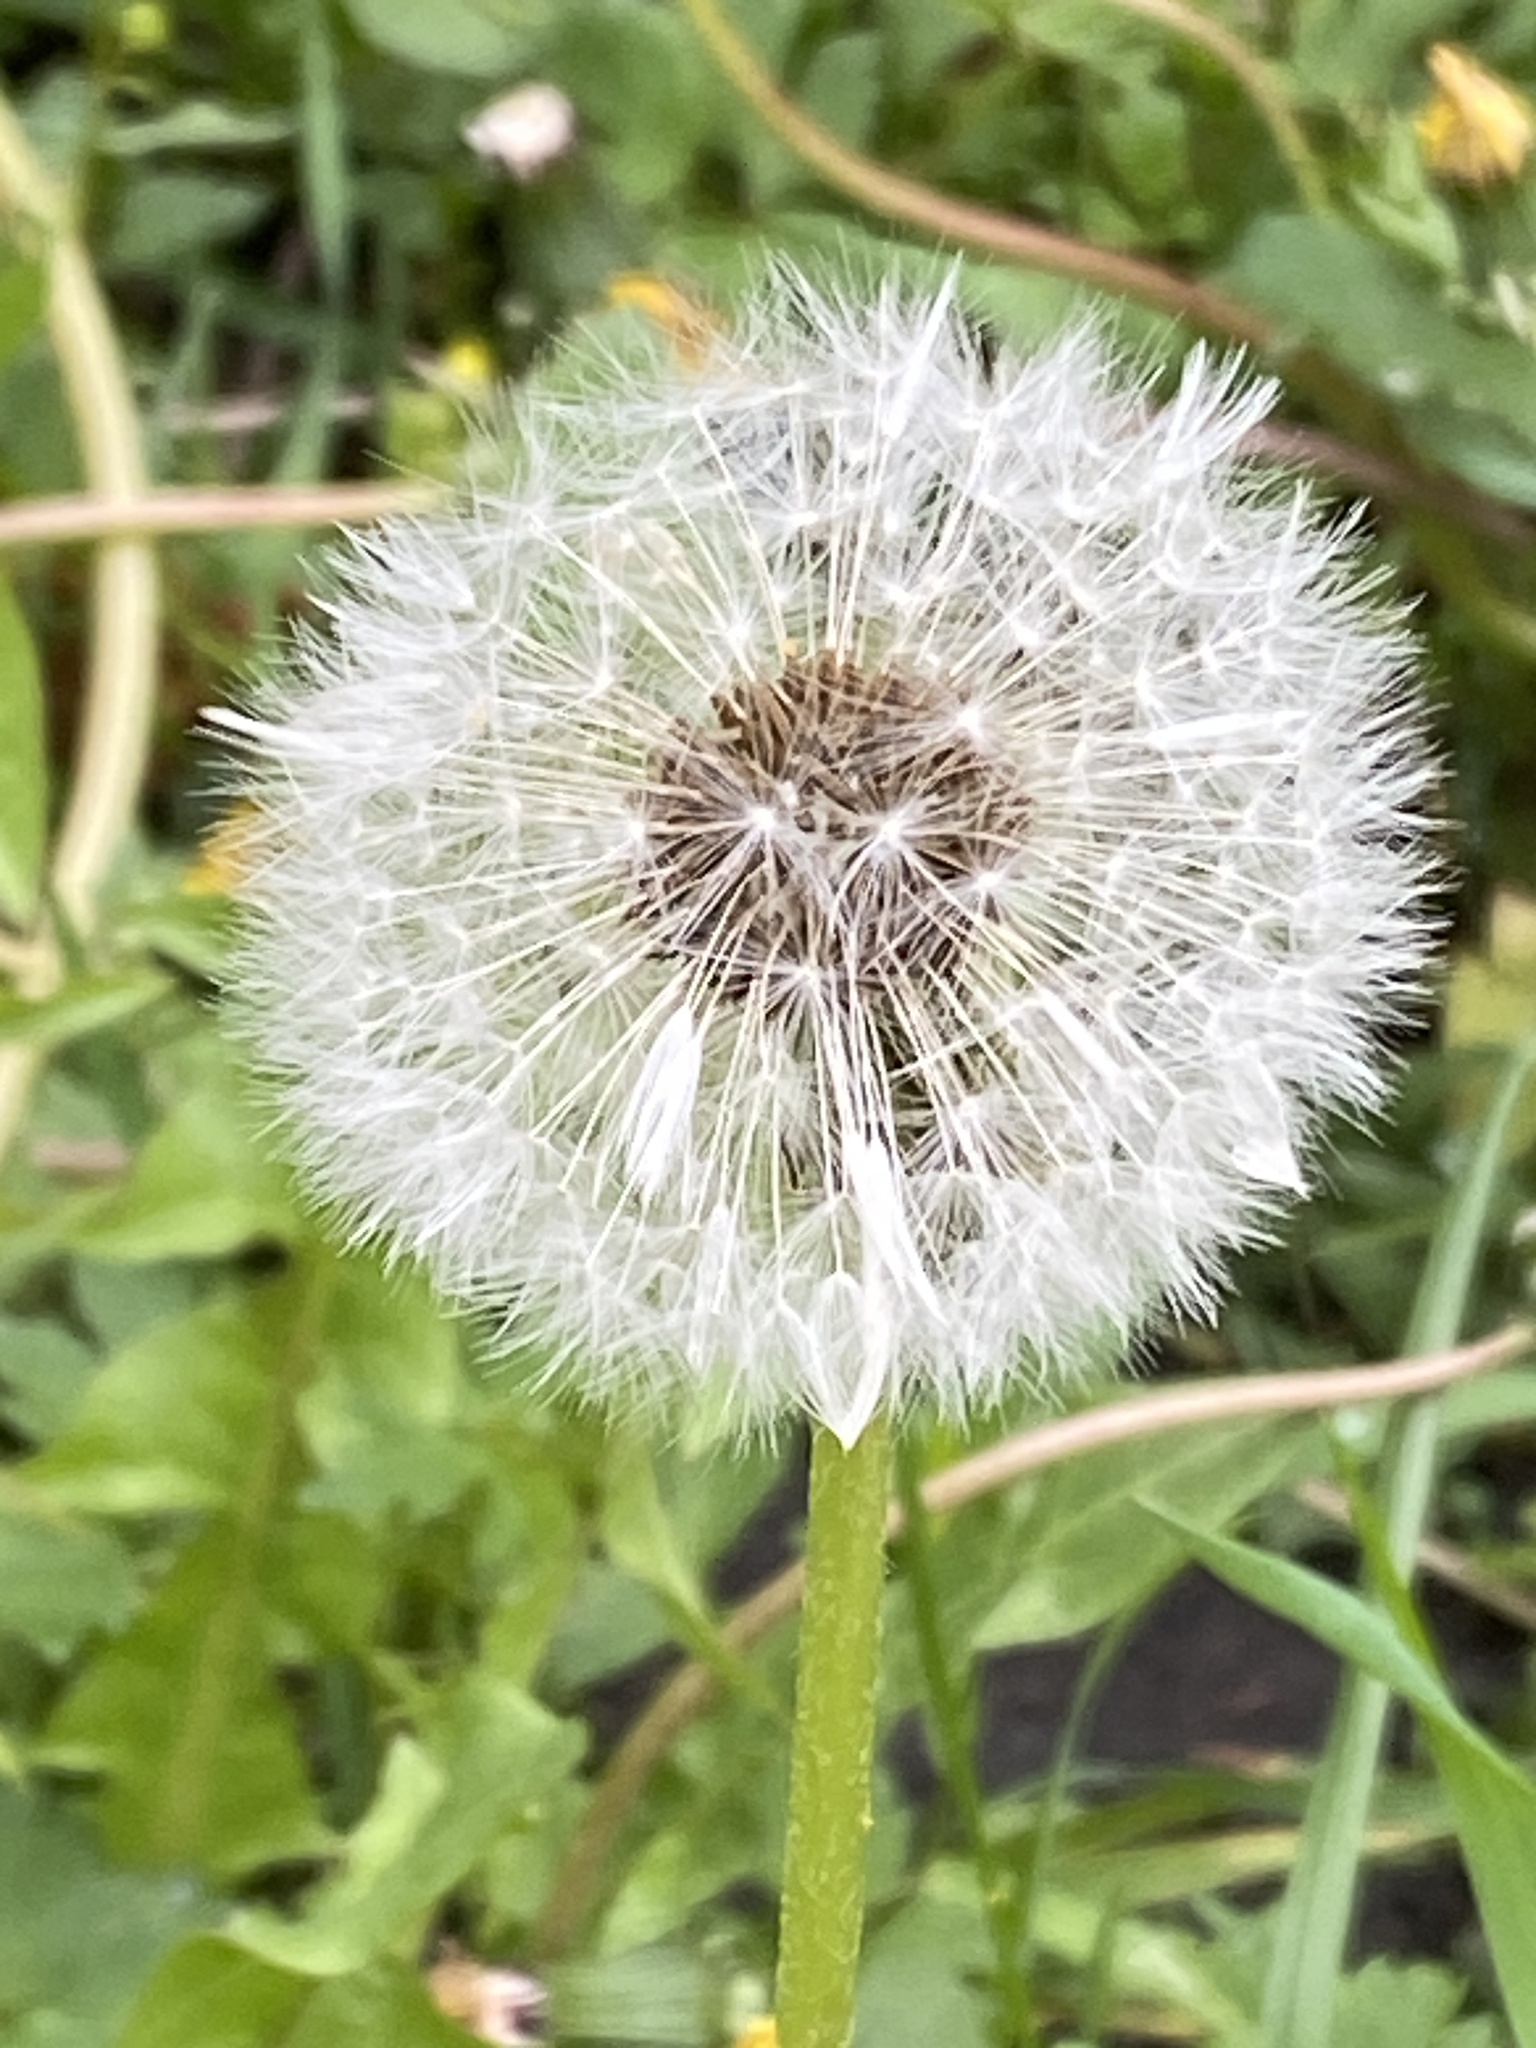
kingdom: Plantae
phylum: Tracheophyta
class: Magnoliopsida
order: Asterales
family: Asteraceae
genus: Taraxacum
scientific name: Taraxacum officinale
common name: Common dandelion
